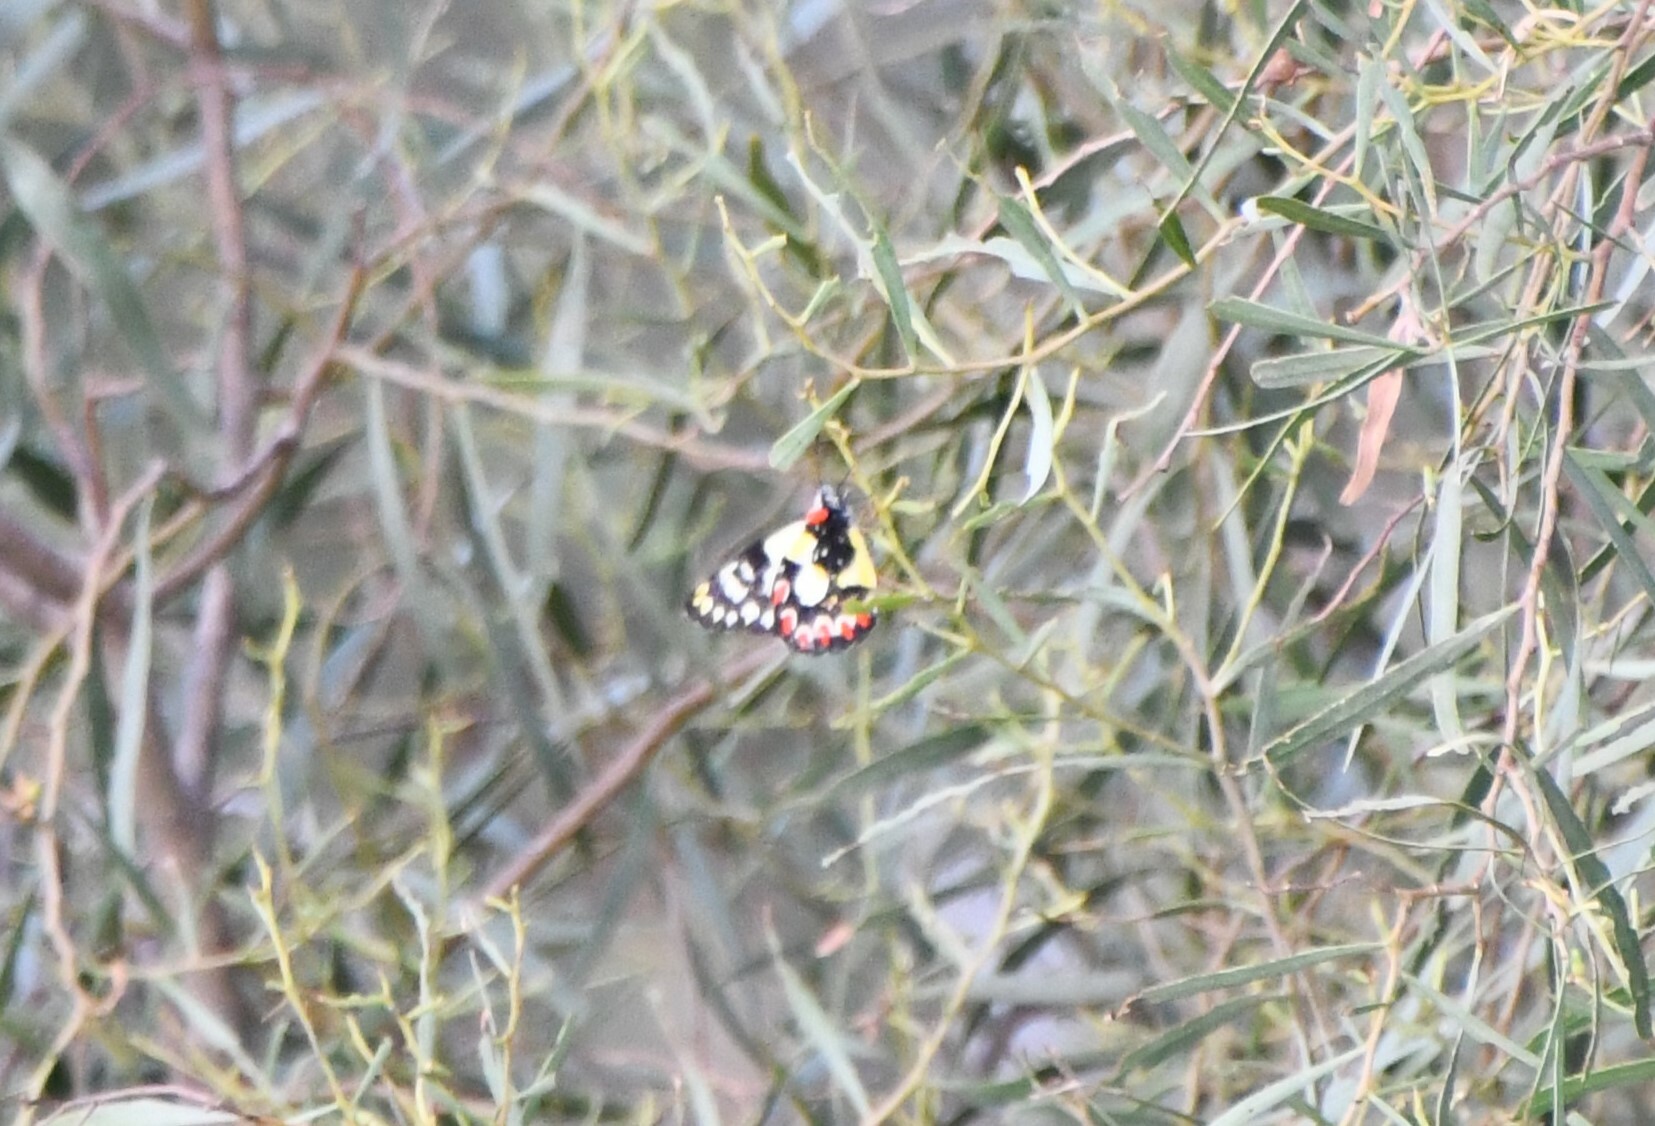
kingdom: Animalia
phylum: Arthropoda
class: Insecta
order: Lepidoptera
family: Pieridae
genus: Delias
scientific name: Delias aganippe
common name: Red-spotted jezebel
